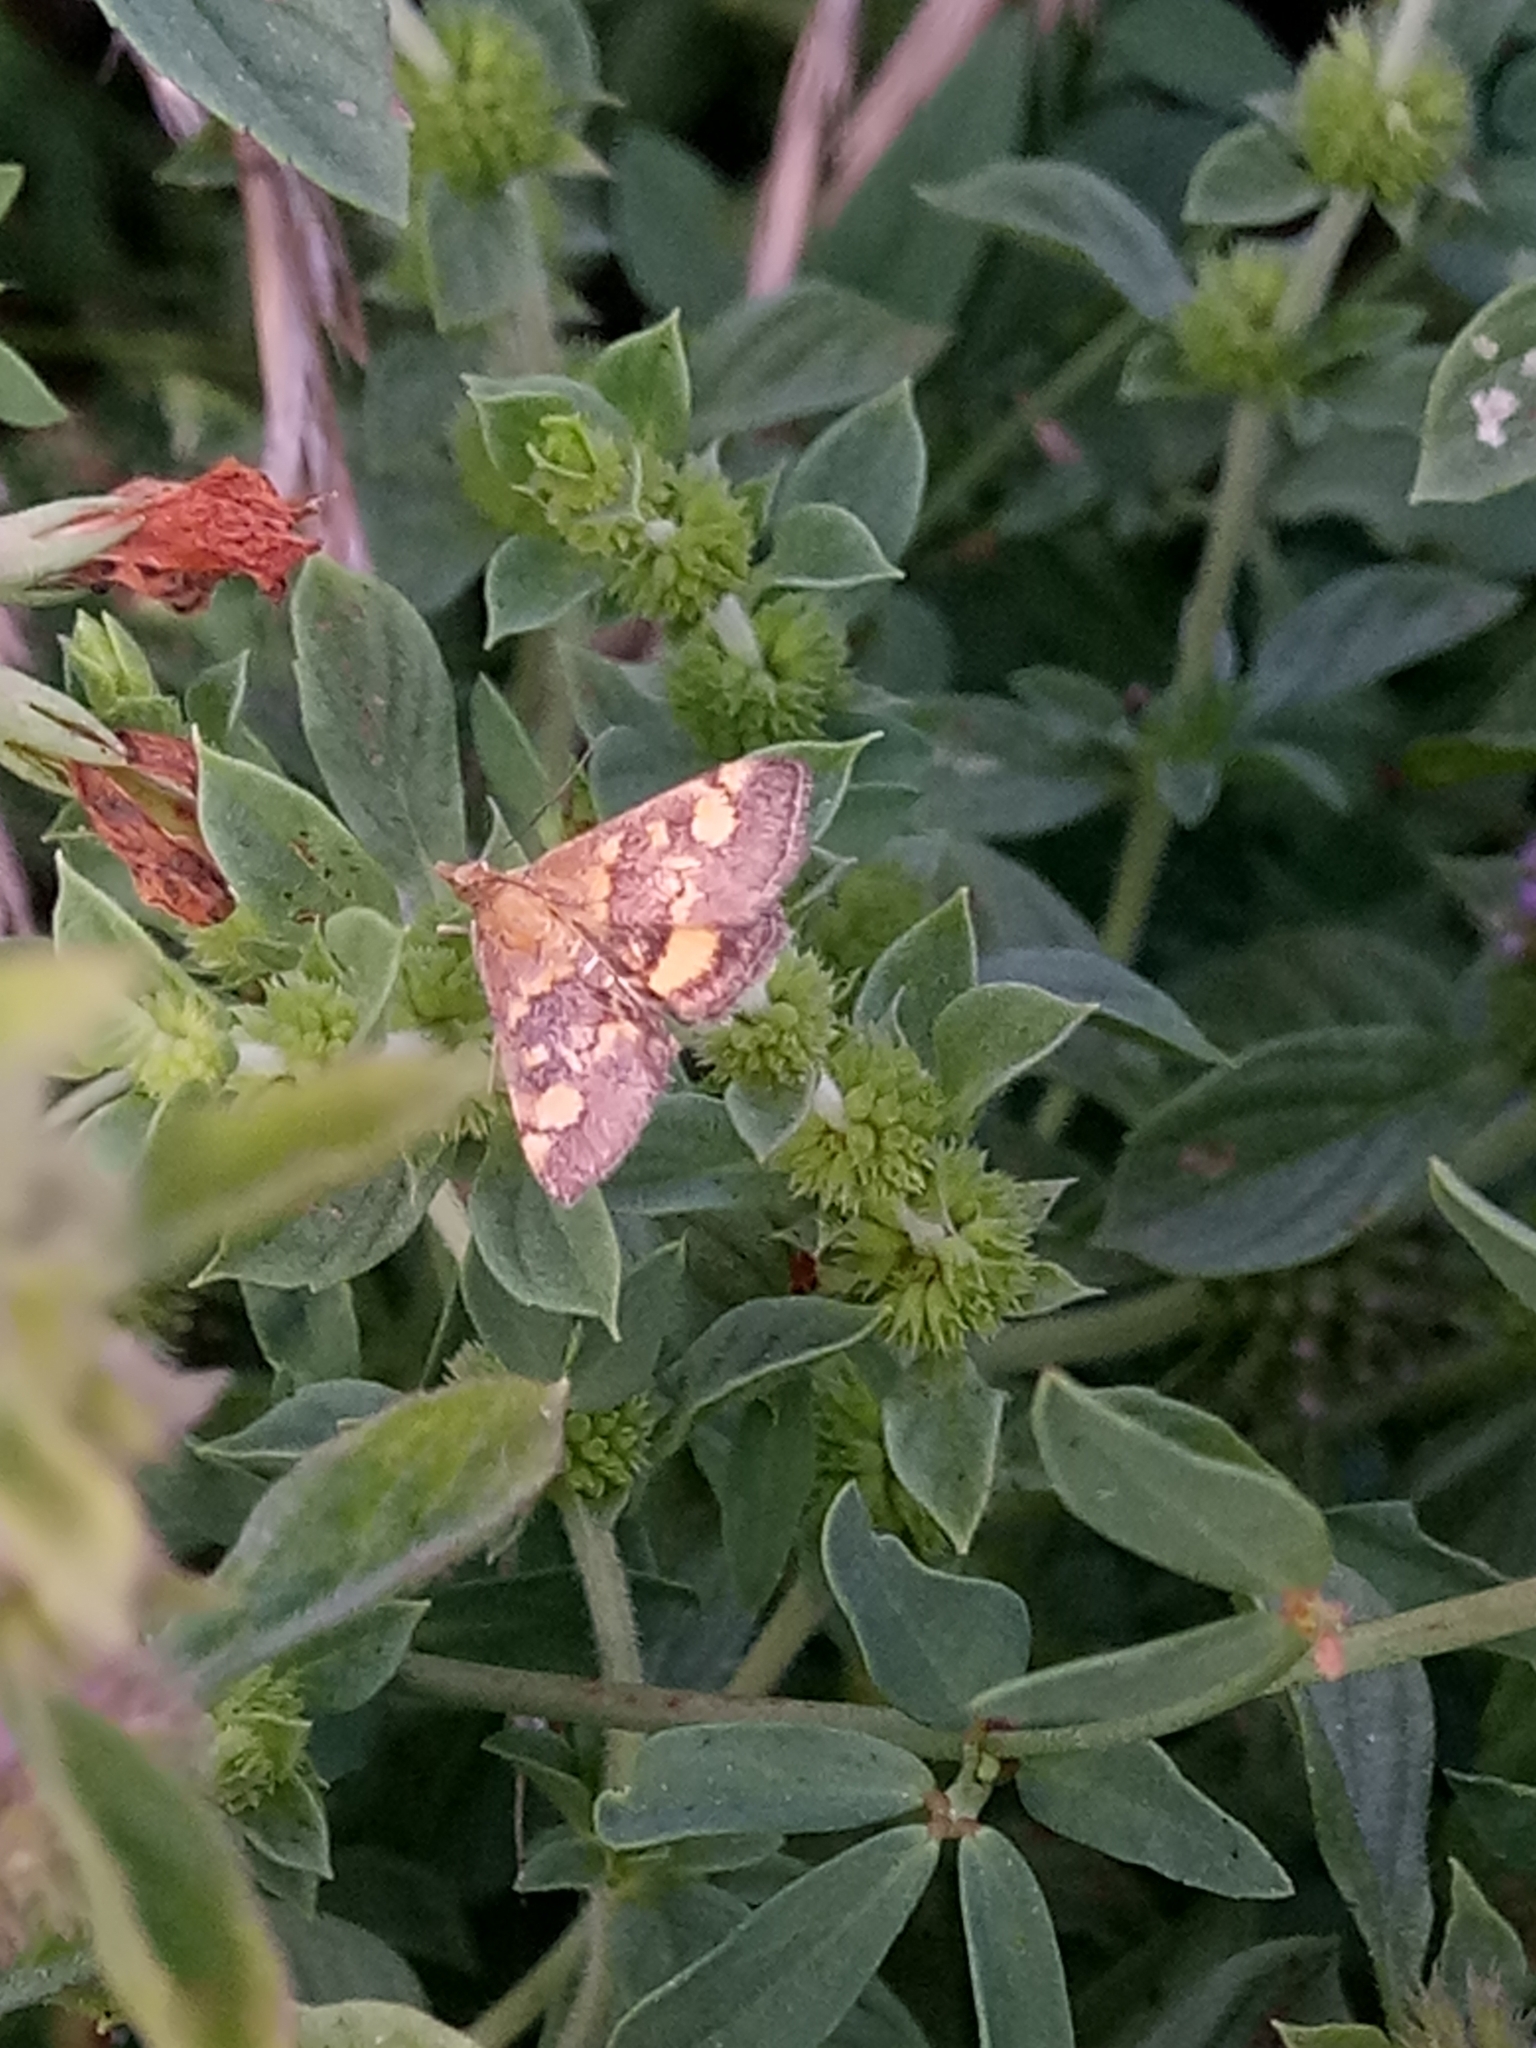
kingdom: Animalia
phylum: Arthropoda
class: Insecta
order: Lepidoptera
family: Crambidae
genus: Pyrausta
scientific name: Pyrausta aurata
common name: Small purple & gold
